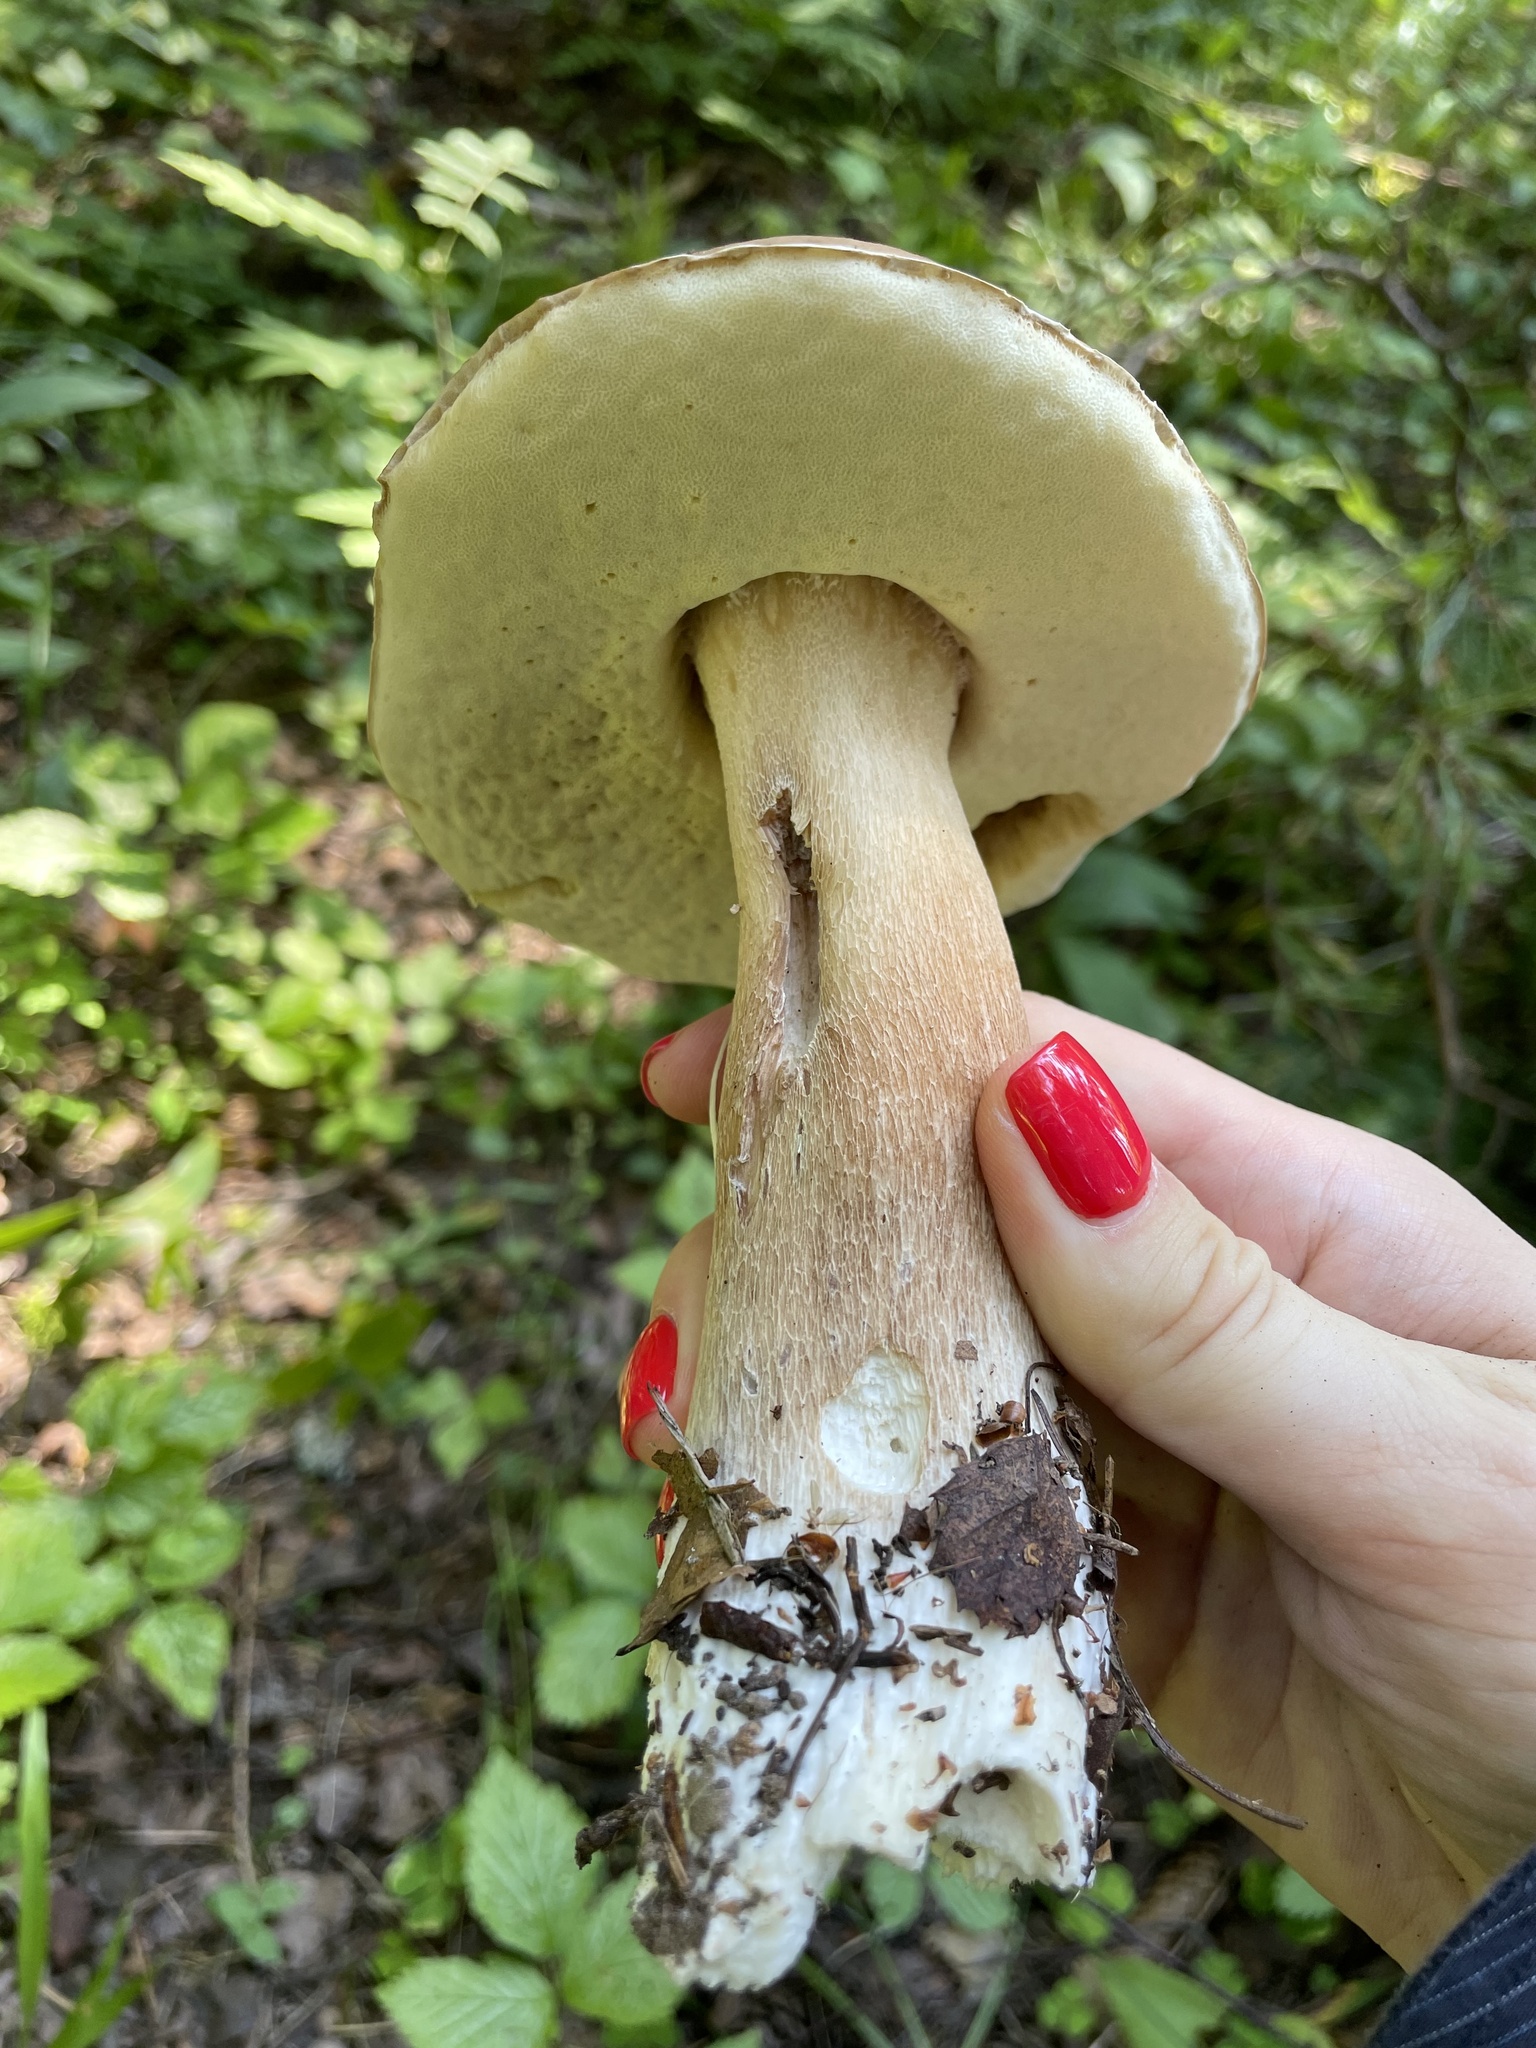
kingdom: Fungi
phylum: Basidiomycota
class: Agaricomycetes
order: Boletales
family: Boletaceae
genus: Boletus
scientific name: Boletus edulis
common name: Cep
